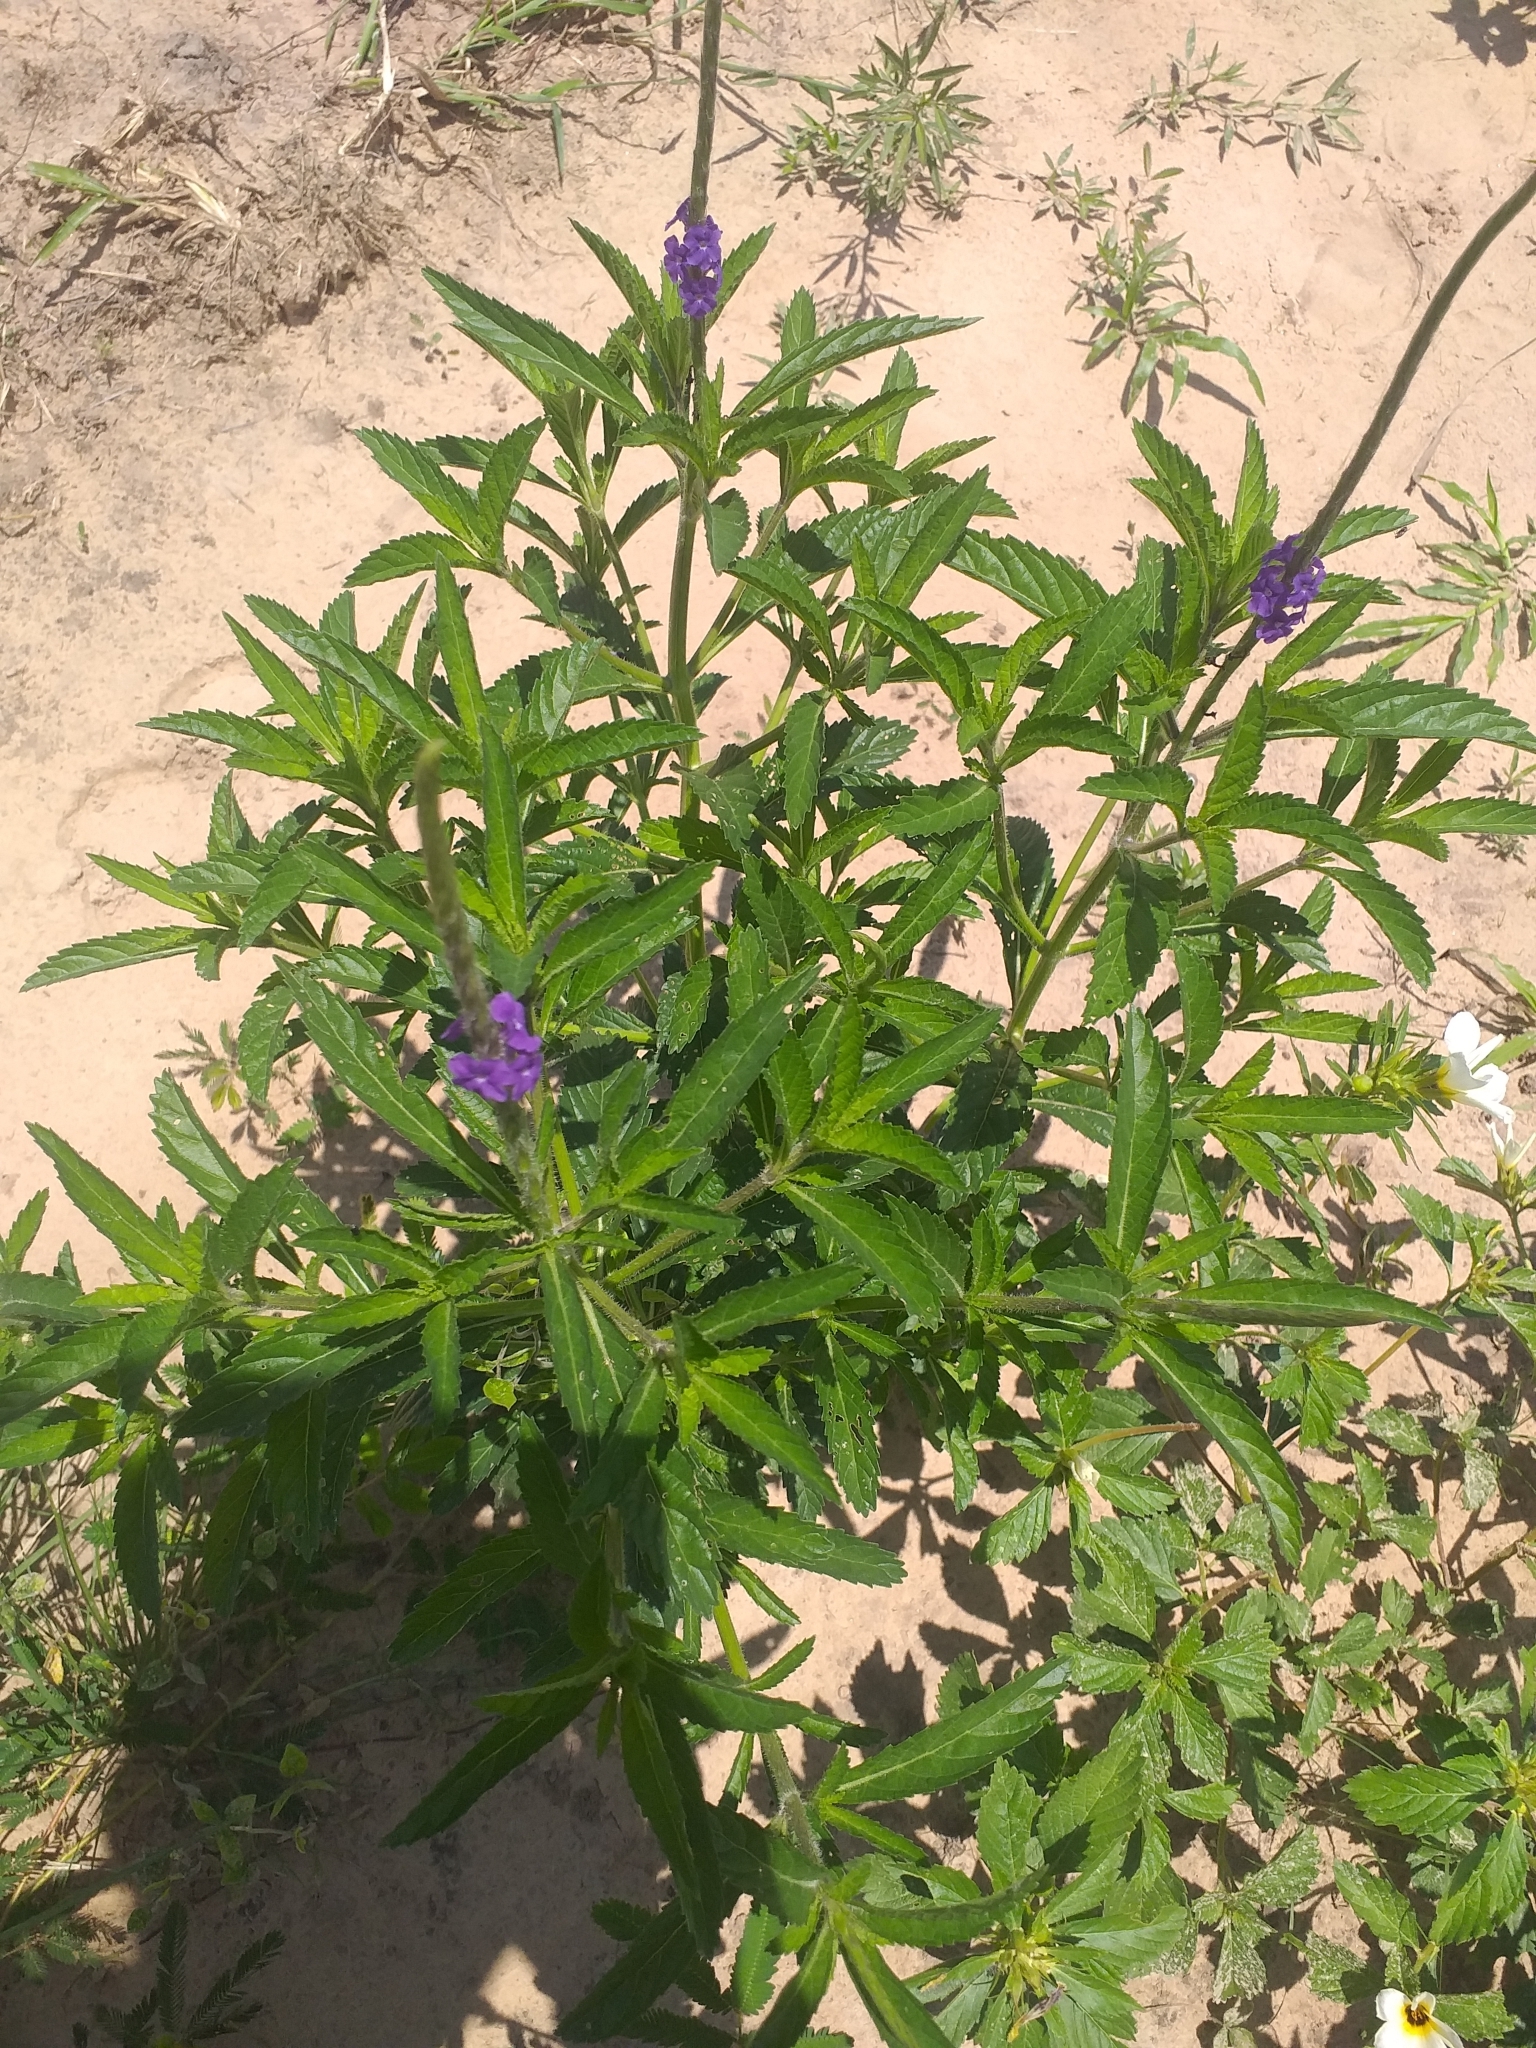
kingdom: Plantae
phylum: Tracheophyta
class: Magnoliopsida
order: Lamiales
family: Verbenaceae
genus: Stachytarpheta
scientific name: Stachytarpheta lythrophylla
